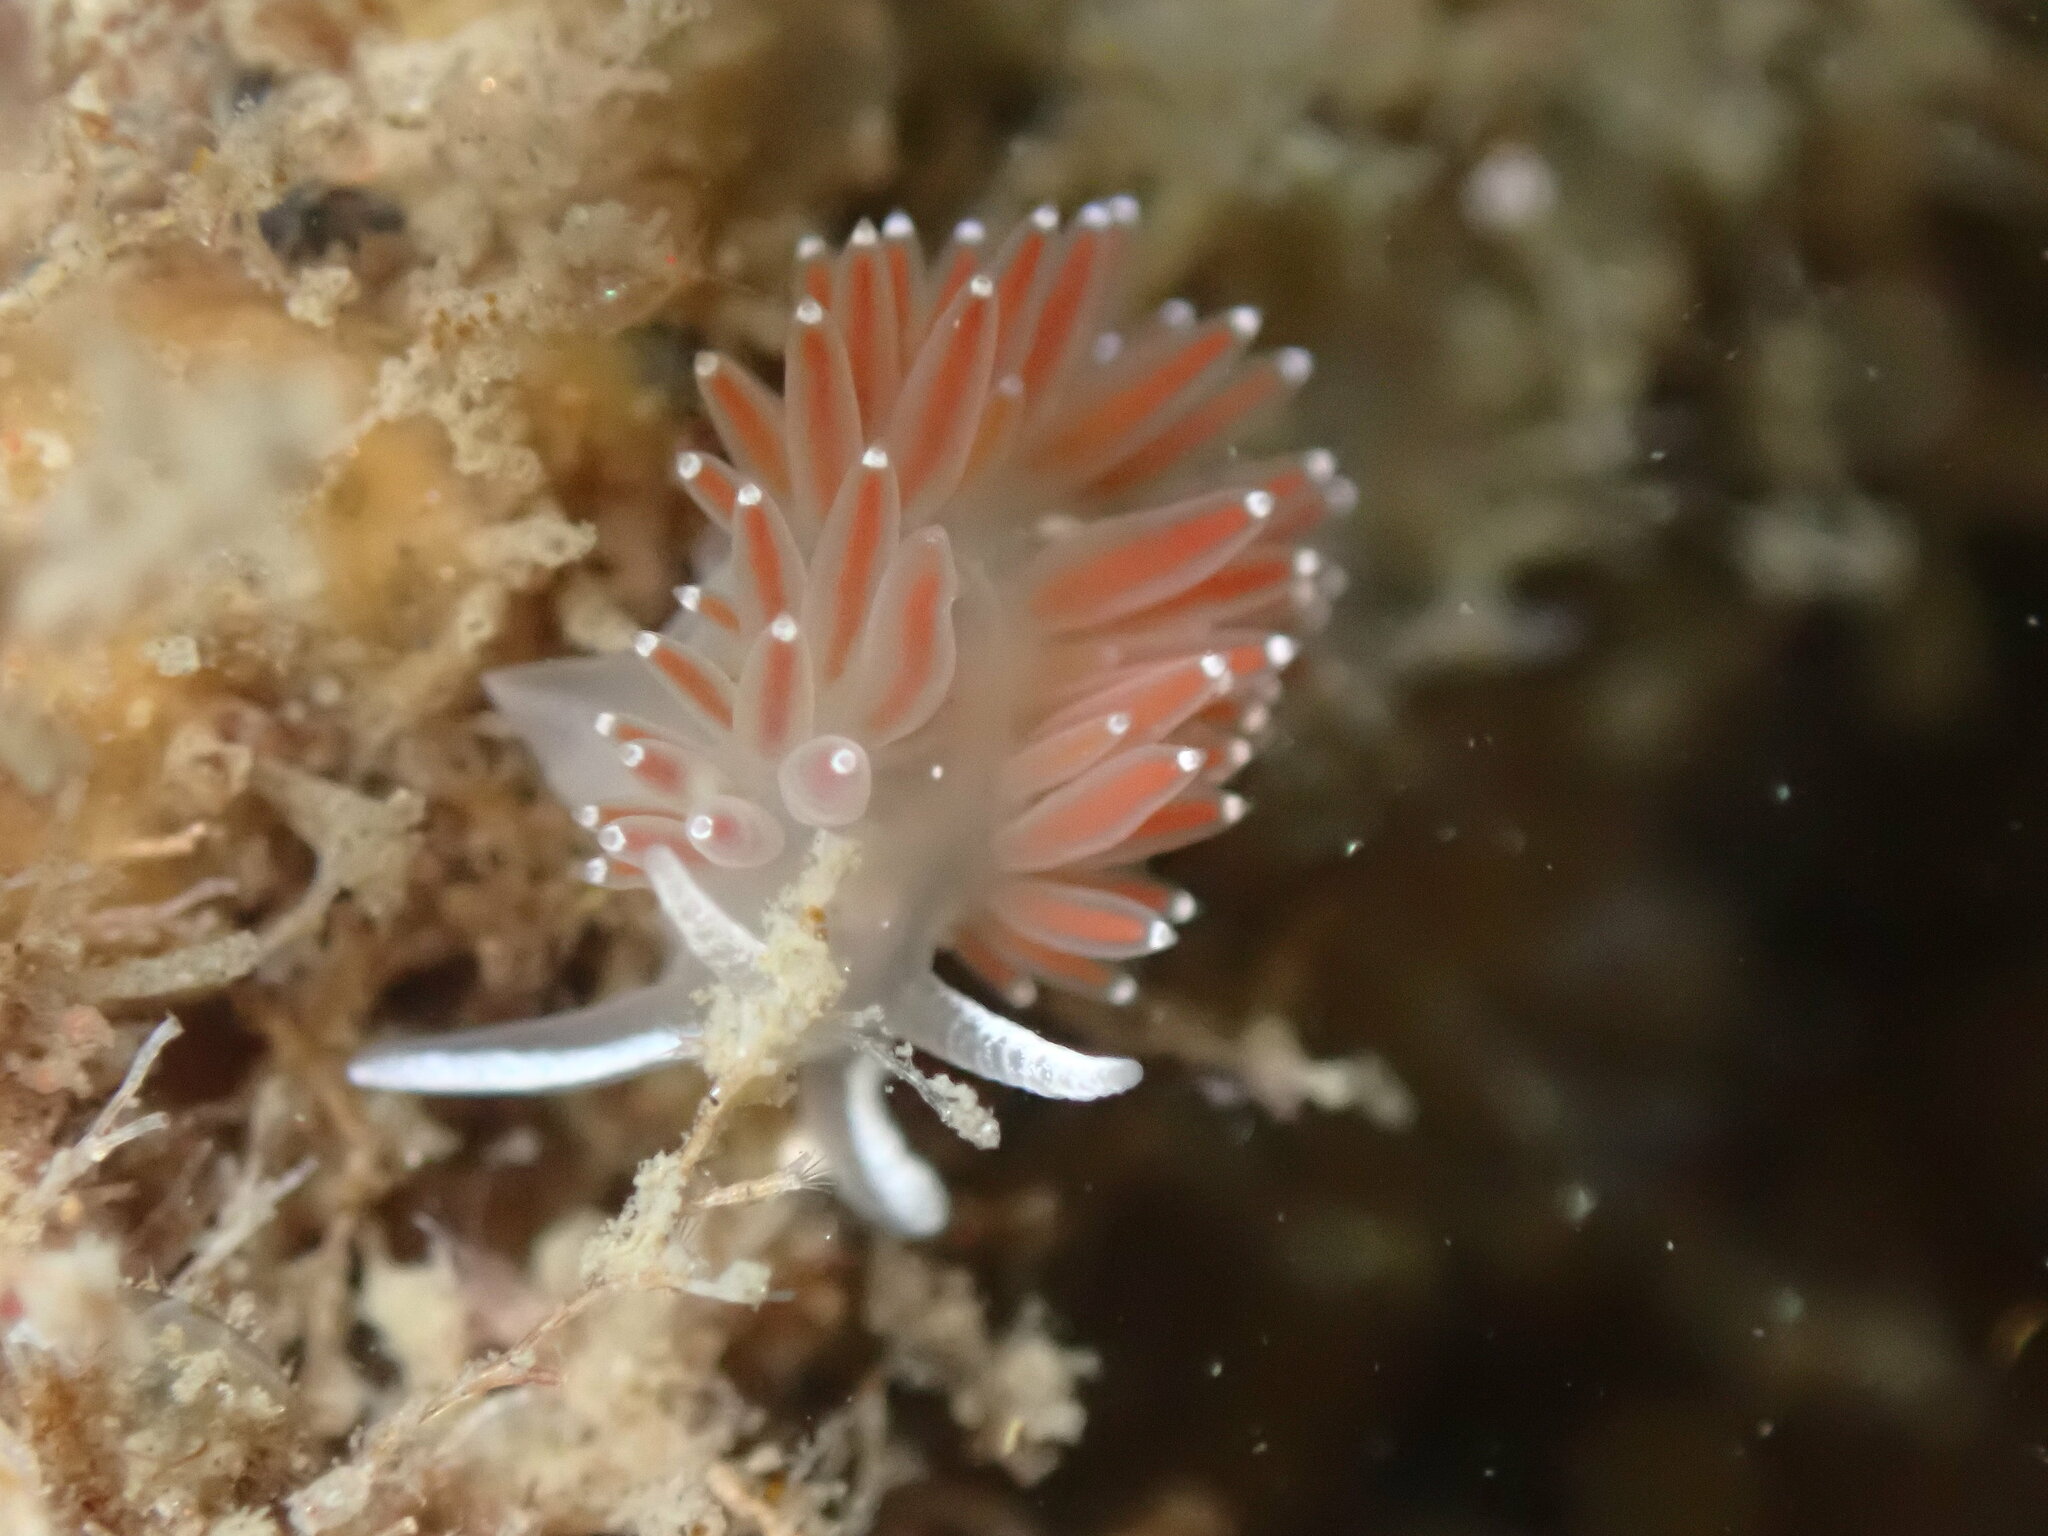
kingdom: Animalia
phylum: Mollusca
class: Gastropoda
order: Nudibranchia
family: Coryphellidae
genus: Coryphella
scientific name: Coryphella verrucosa
